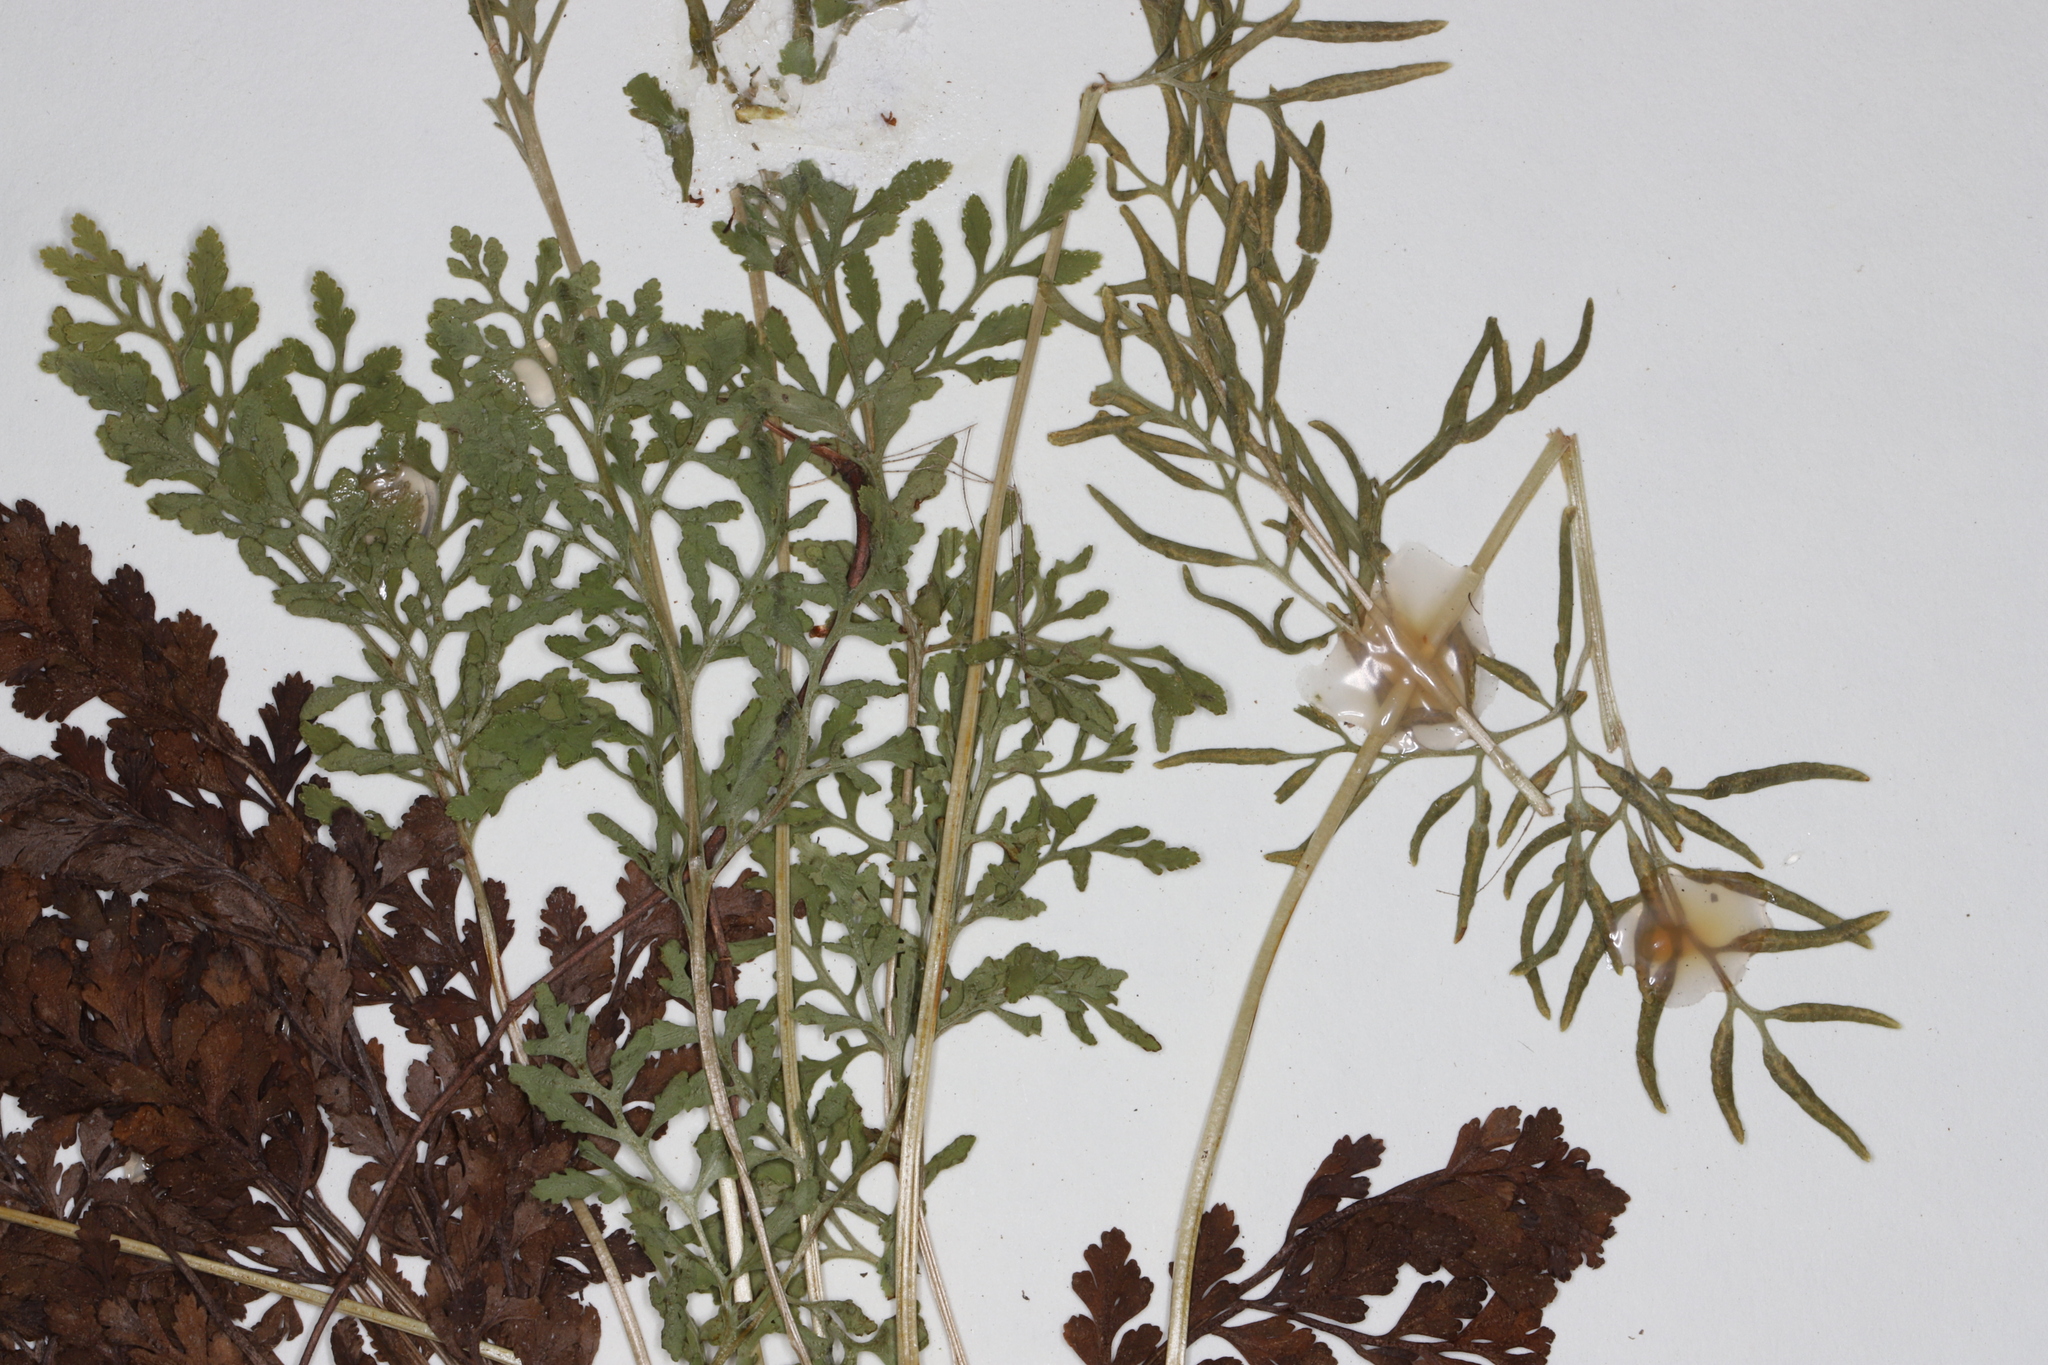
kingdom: Plantae
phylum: Tracheophyta
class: Polypodiopsida
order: Polypodiales
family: Pteridaceae
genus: Cryptogramma
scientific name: Cryptogramma acrostichoides
